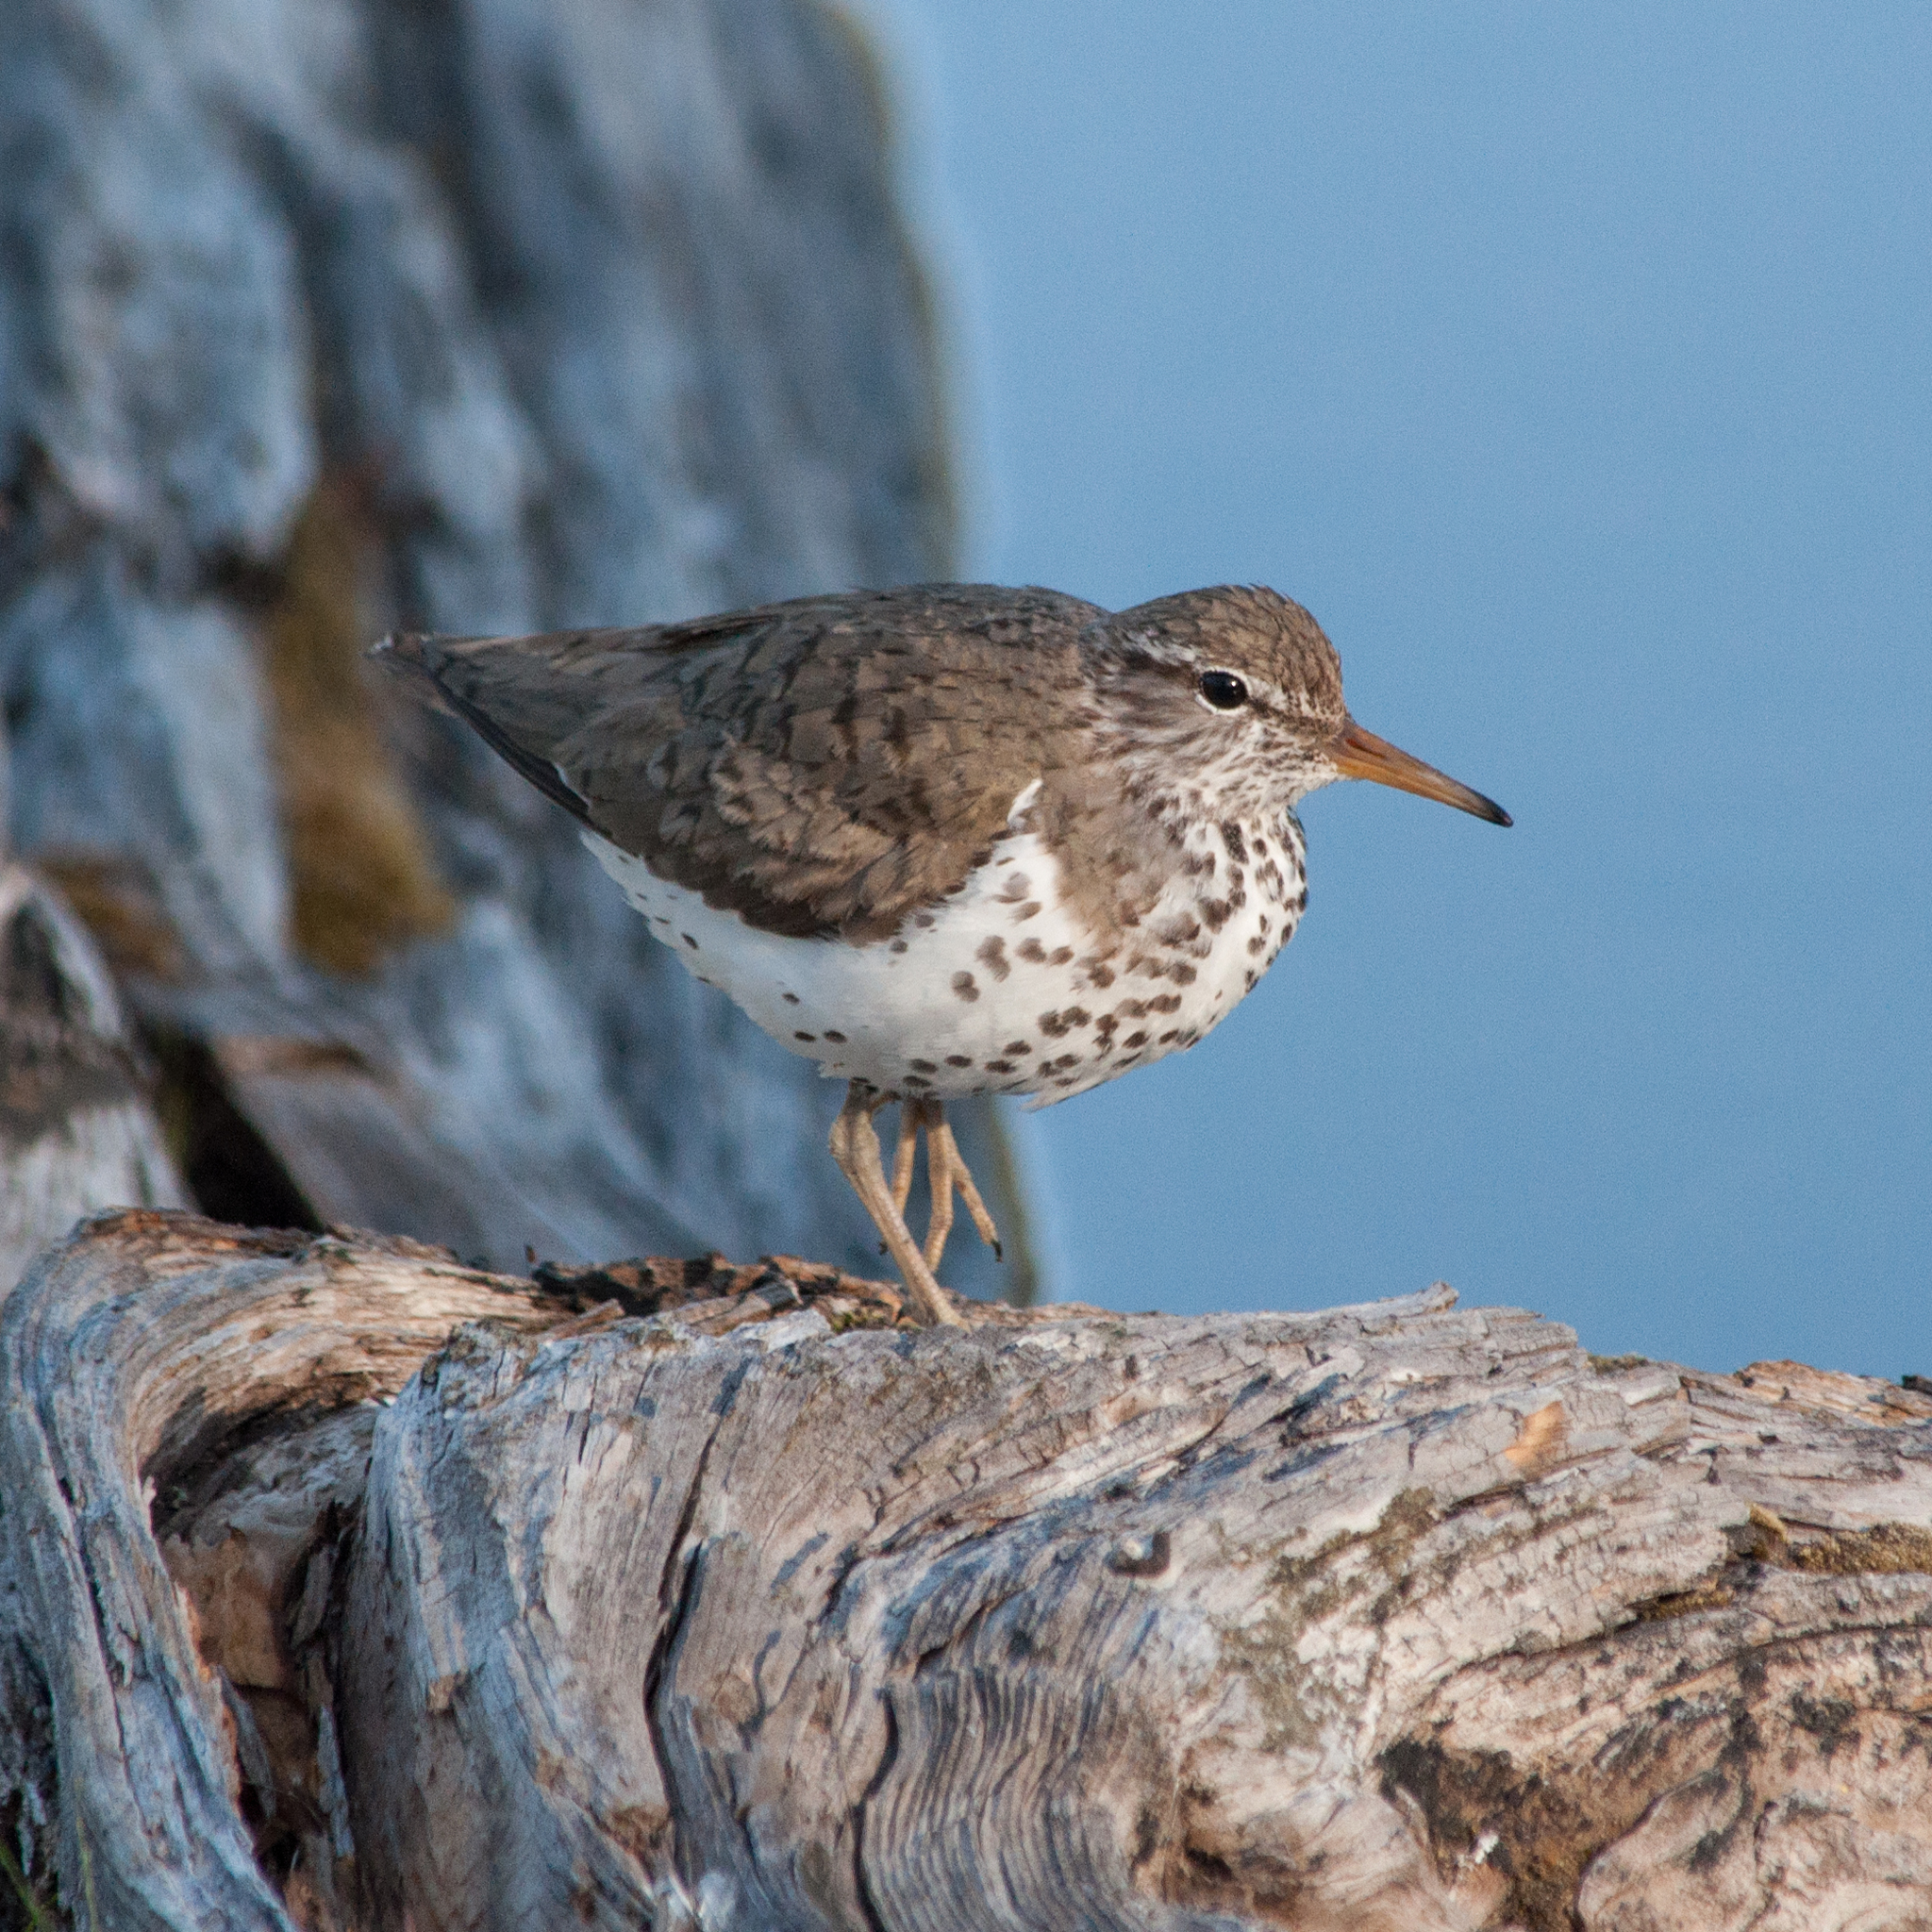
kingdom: Animalia
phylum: Chordata
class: Aves
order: Charadriiformes
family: Scolopacidae
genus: Actitis
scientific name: Actitis macularius
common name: Spotted sandpiper
